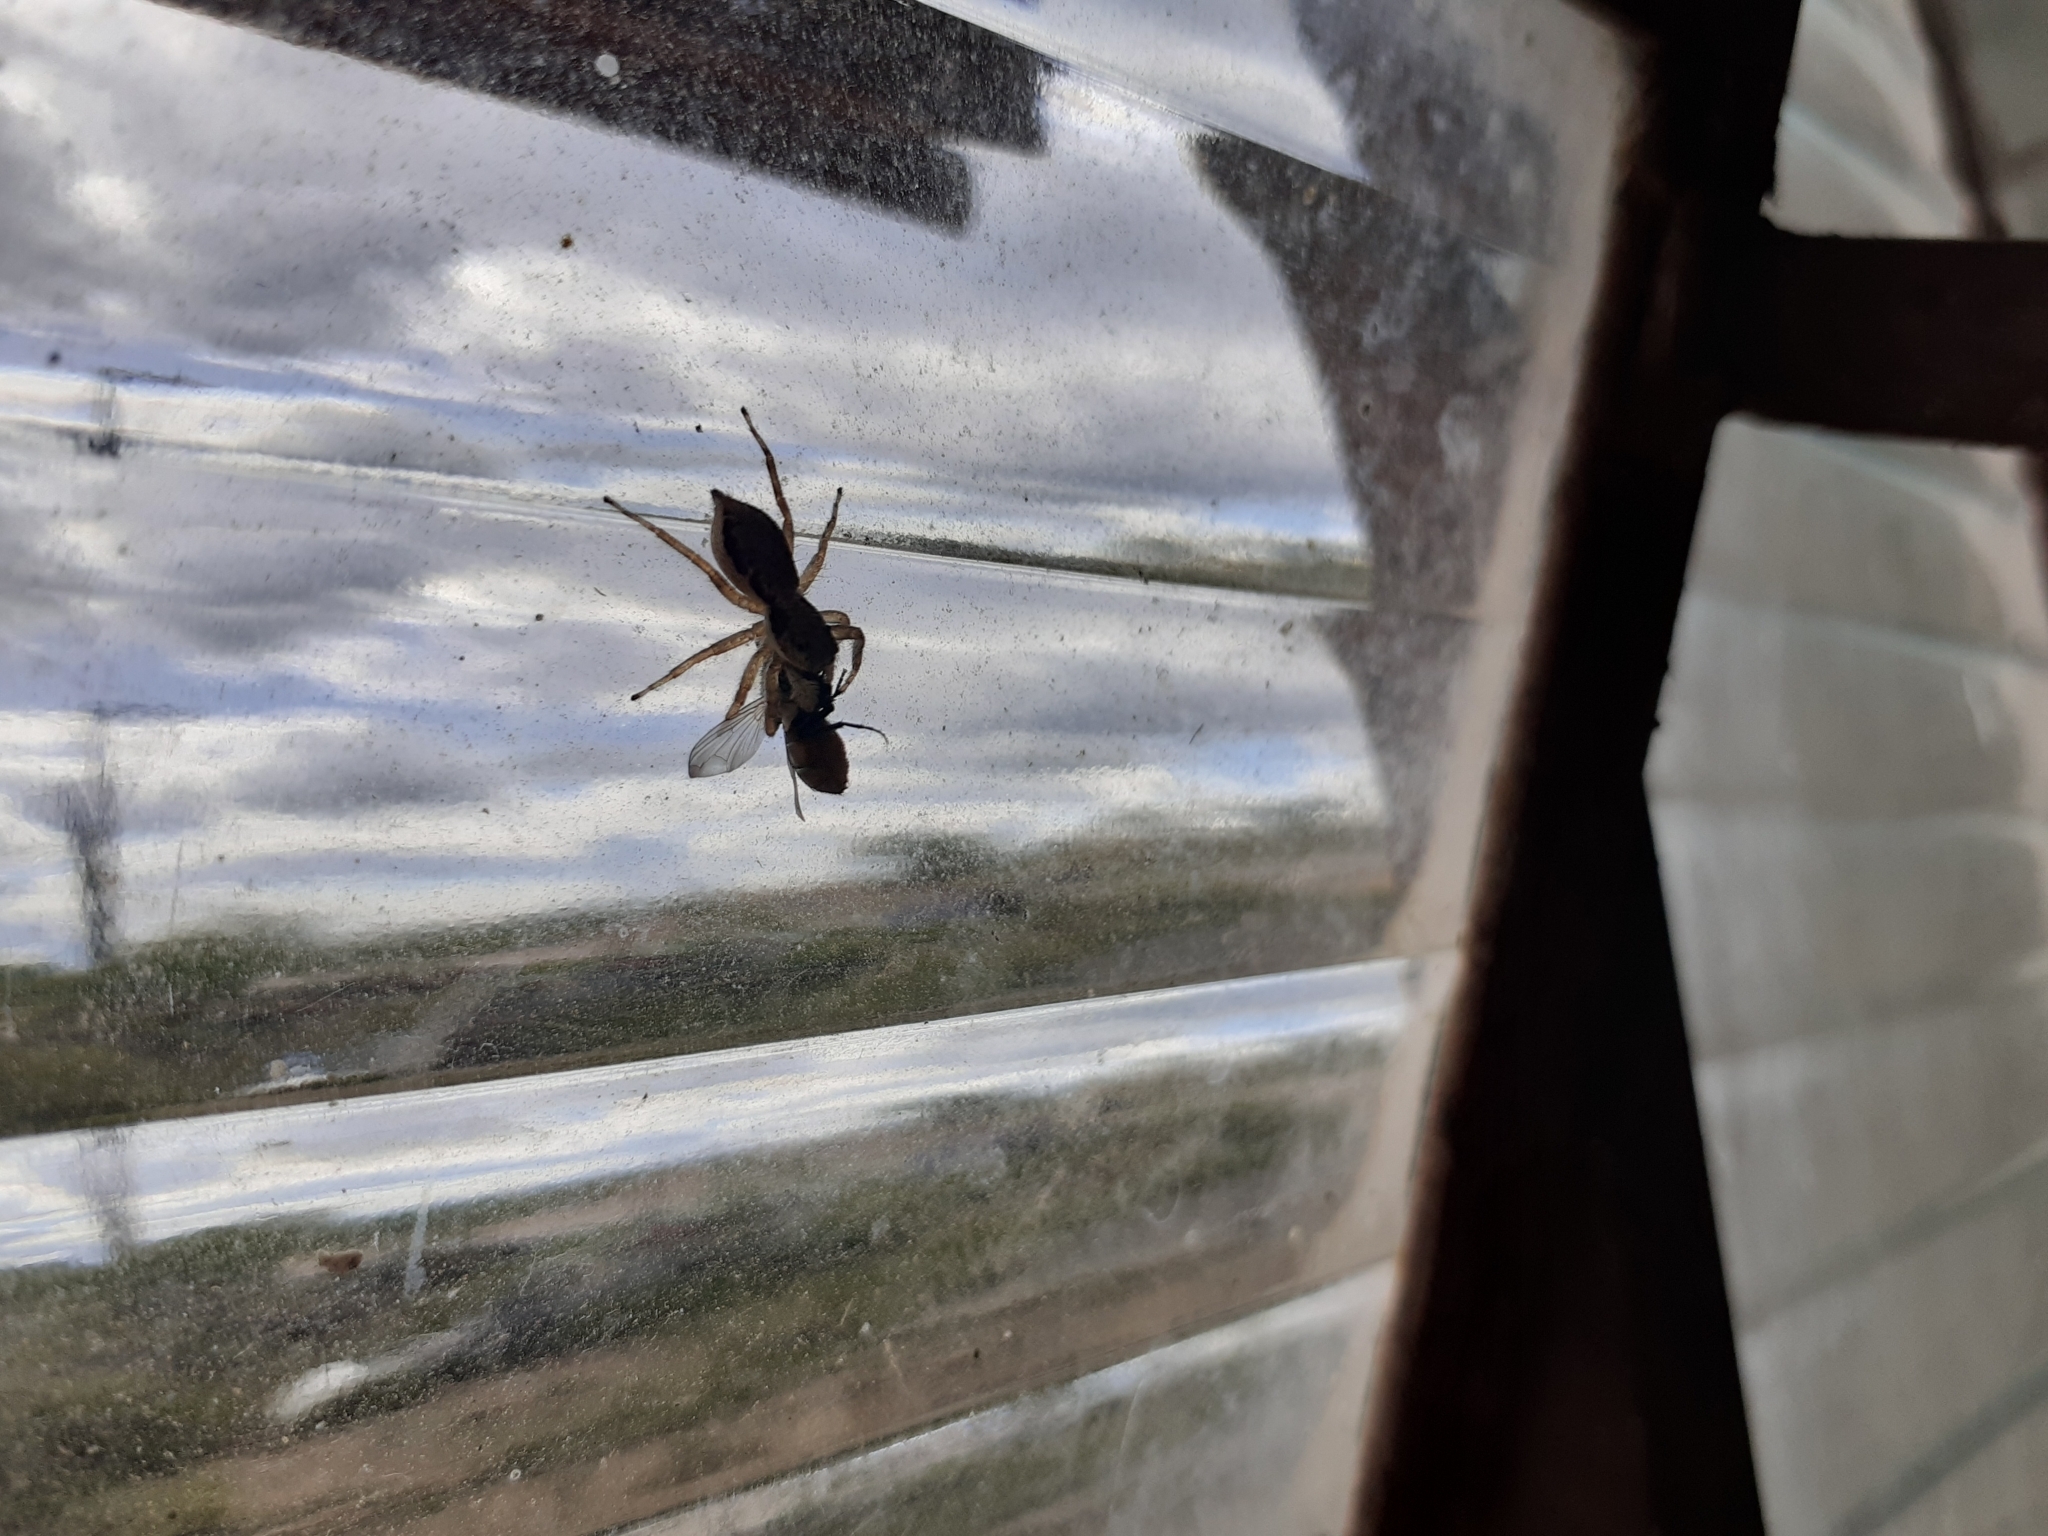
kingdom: Animalia
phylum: Arthropoda
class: Arachnida
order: Araneae
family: Salticidae
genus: Menemerus
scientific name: Menemerus bivittatus
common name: Gray wall jumper
